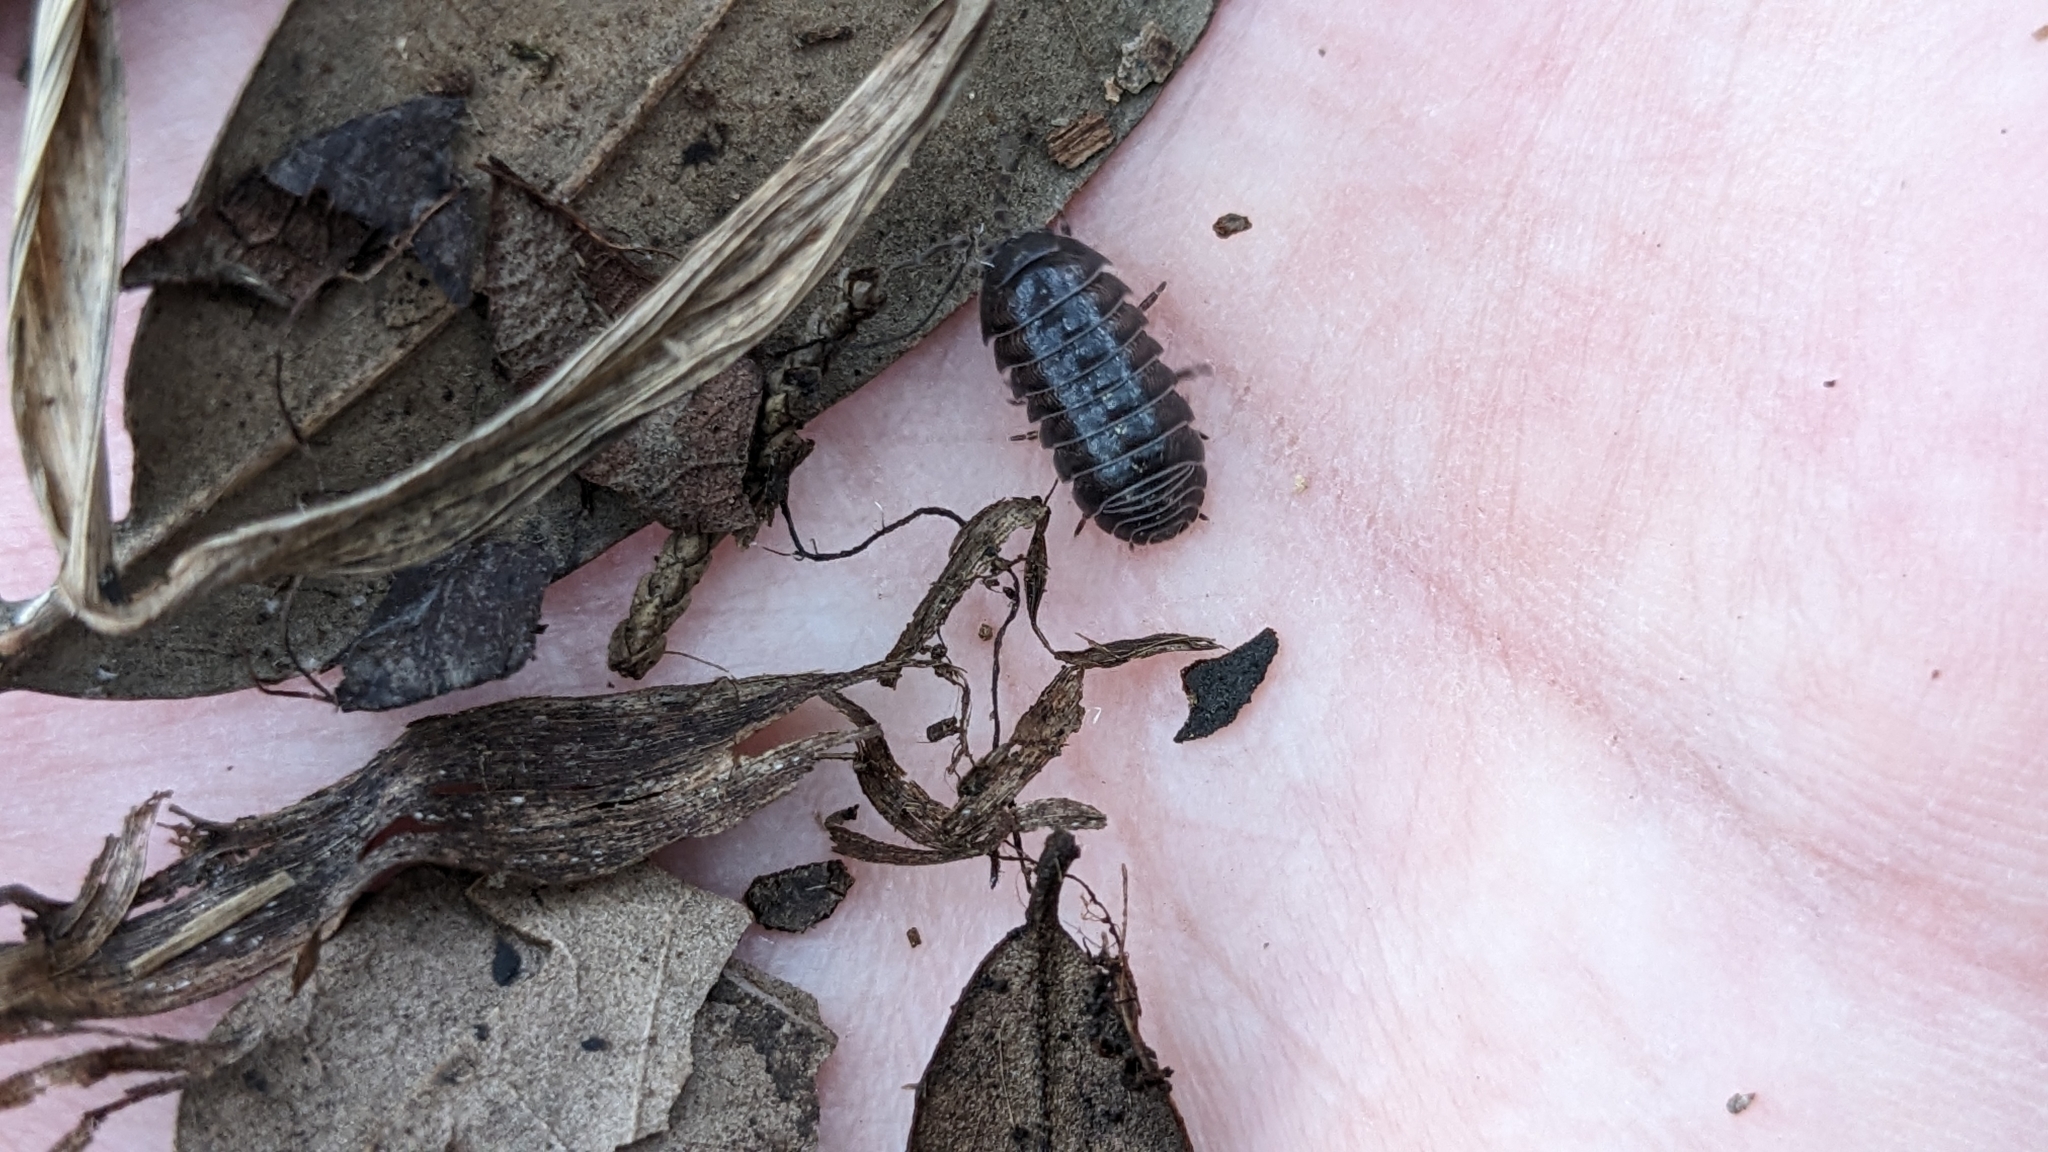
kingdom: Animalia
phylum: Arthropoda
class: Malacostraca
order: Isopoda
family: Armadillidiidae
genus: Armadillidium
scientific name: Armadillidium vulgare
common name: Common pill woodlouse
